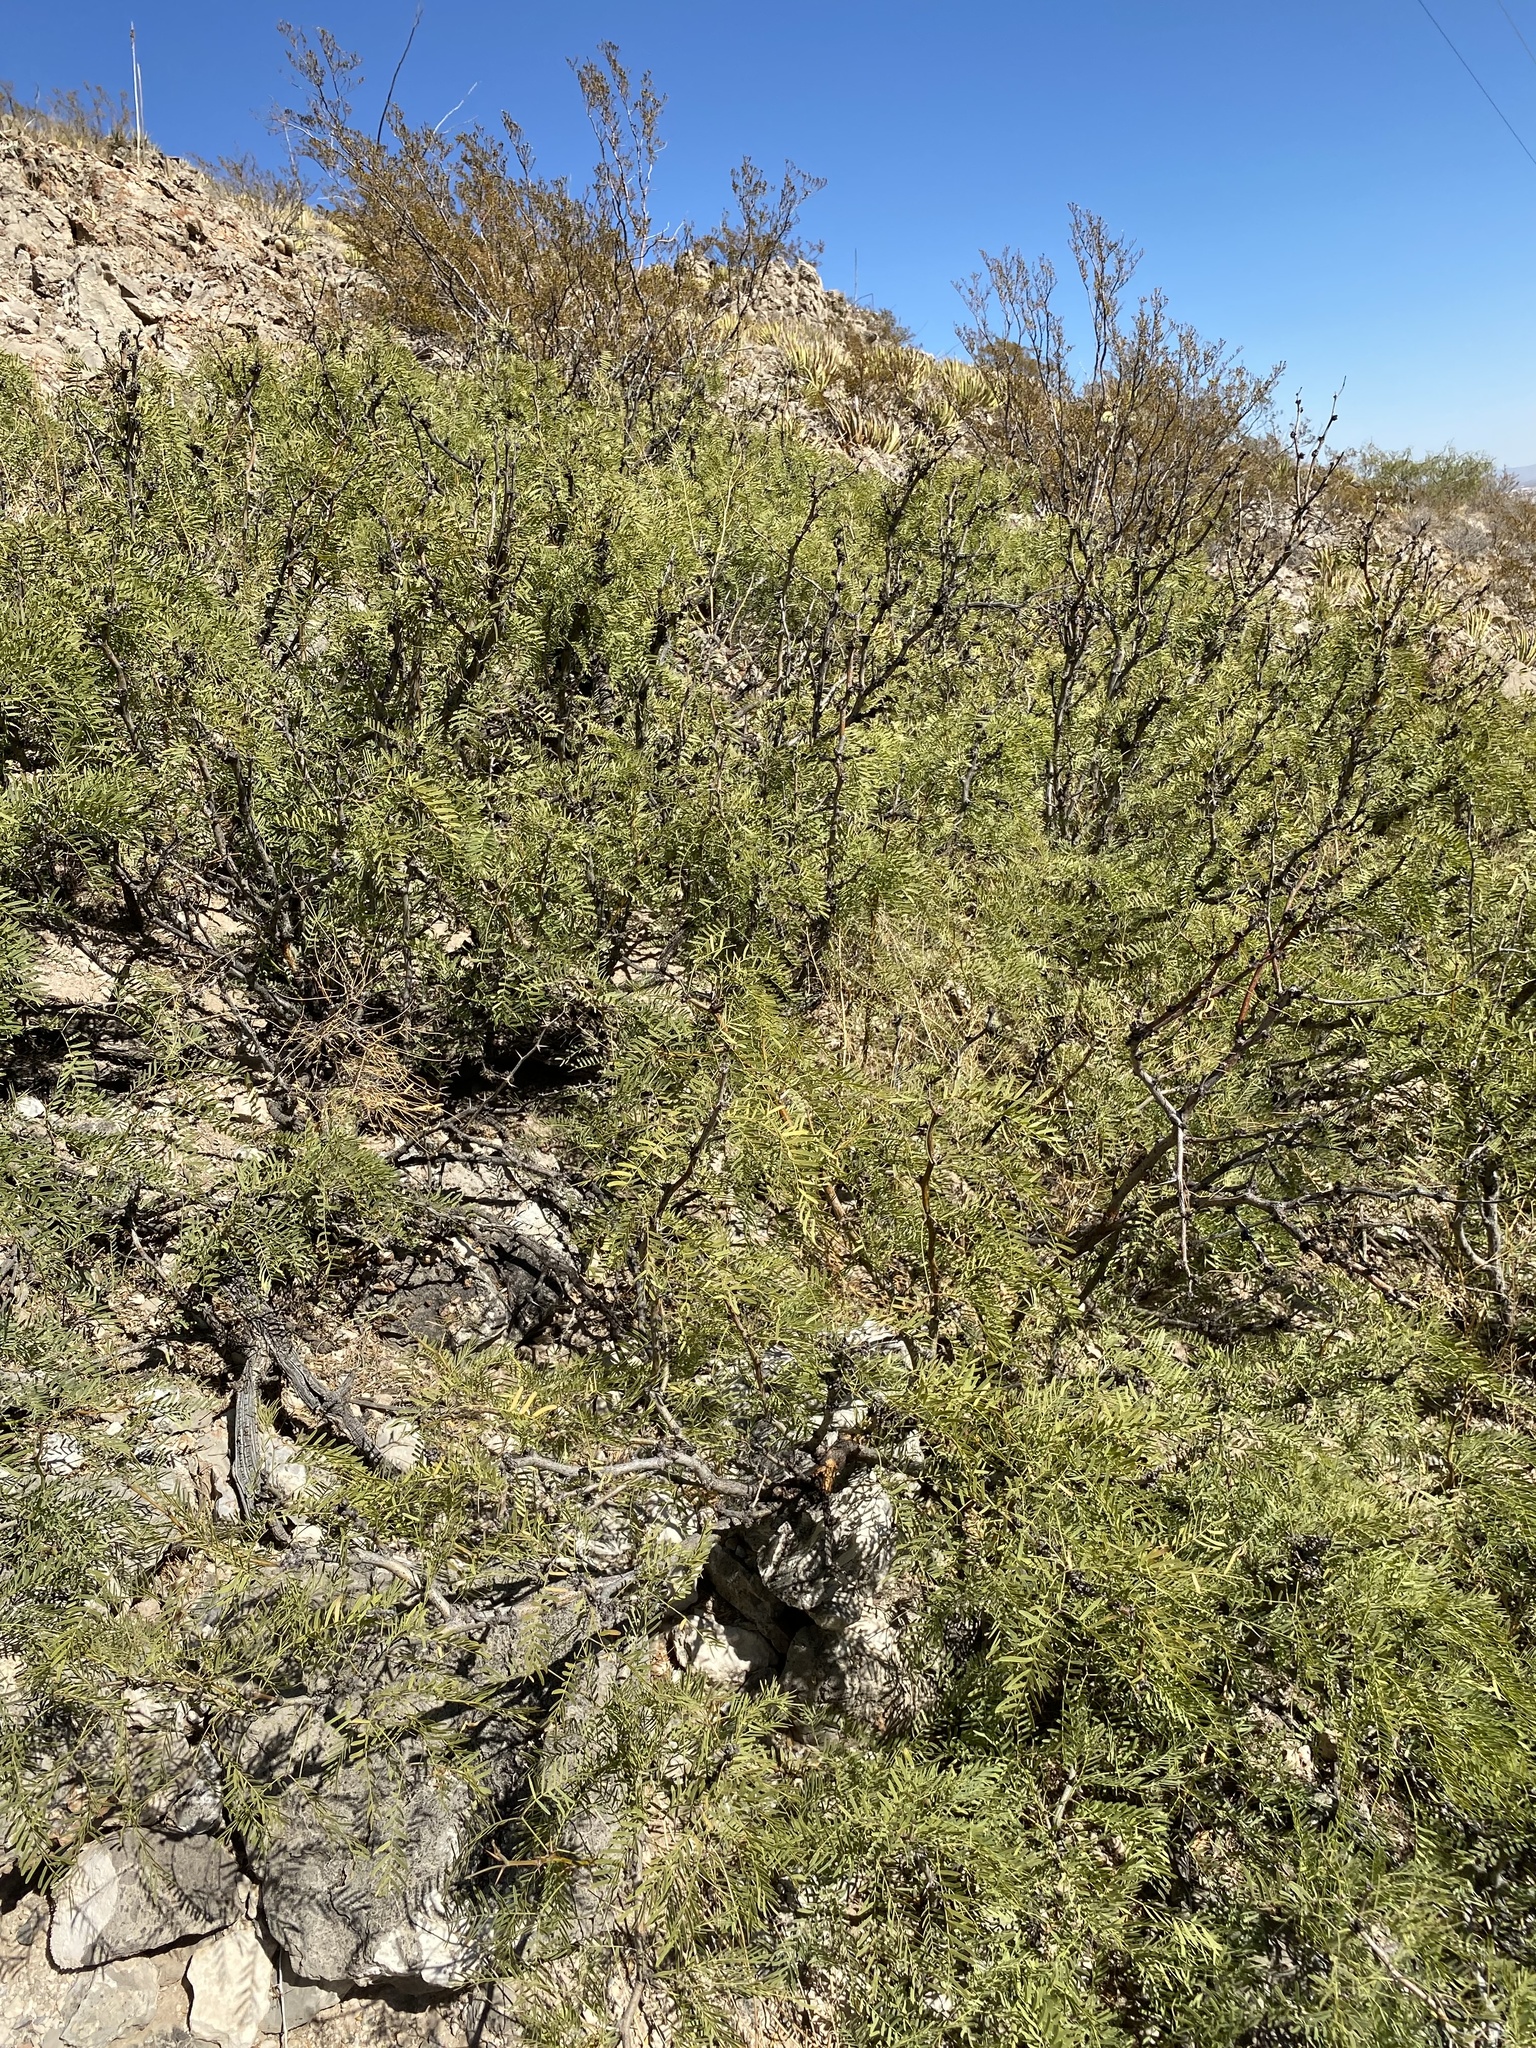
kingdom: Plantae
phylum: Tracheophyta
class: Magnoliopsida
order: Fabales
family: Fabaceae
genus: Prosopis
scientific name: Prosopis glandulosa
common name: Honey mesquite
